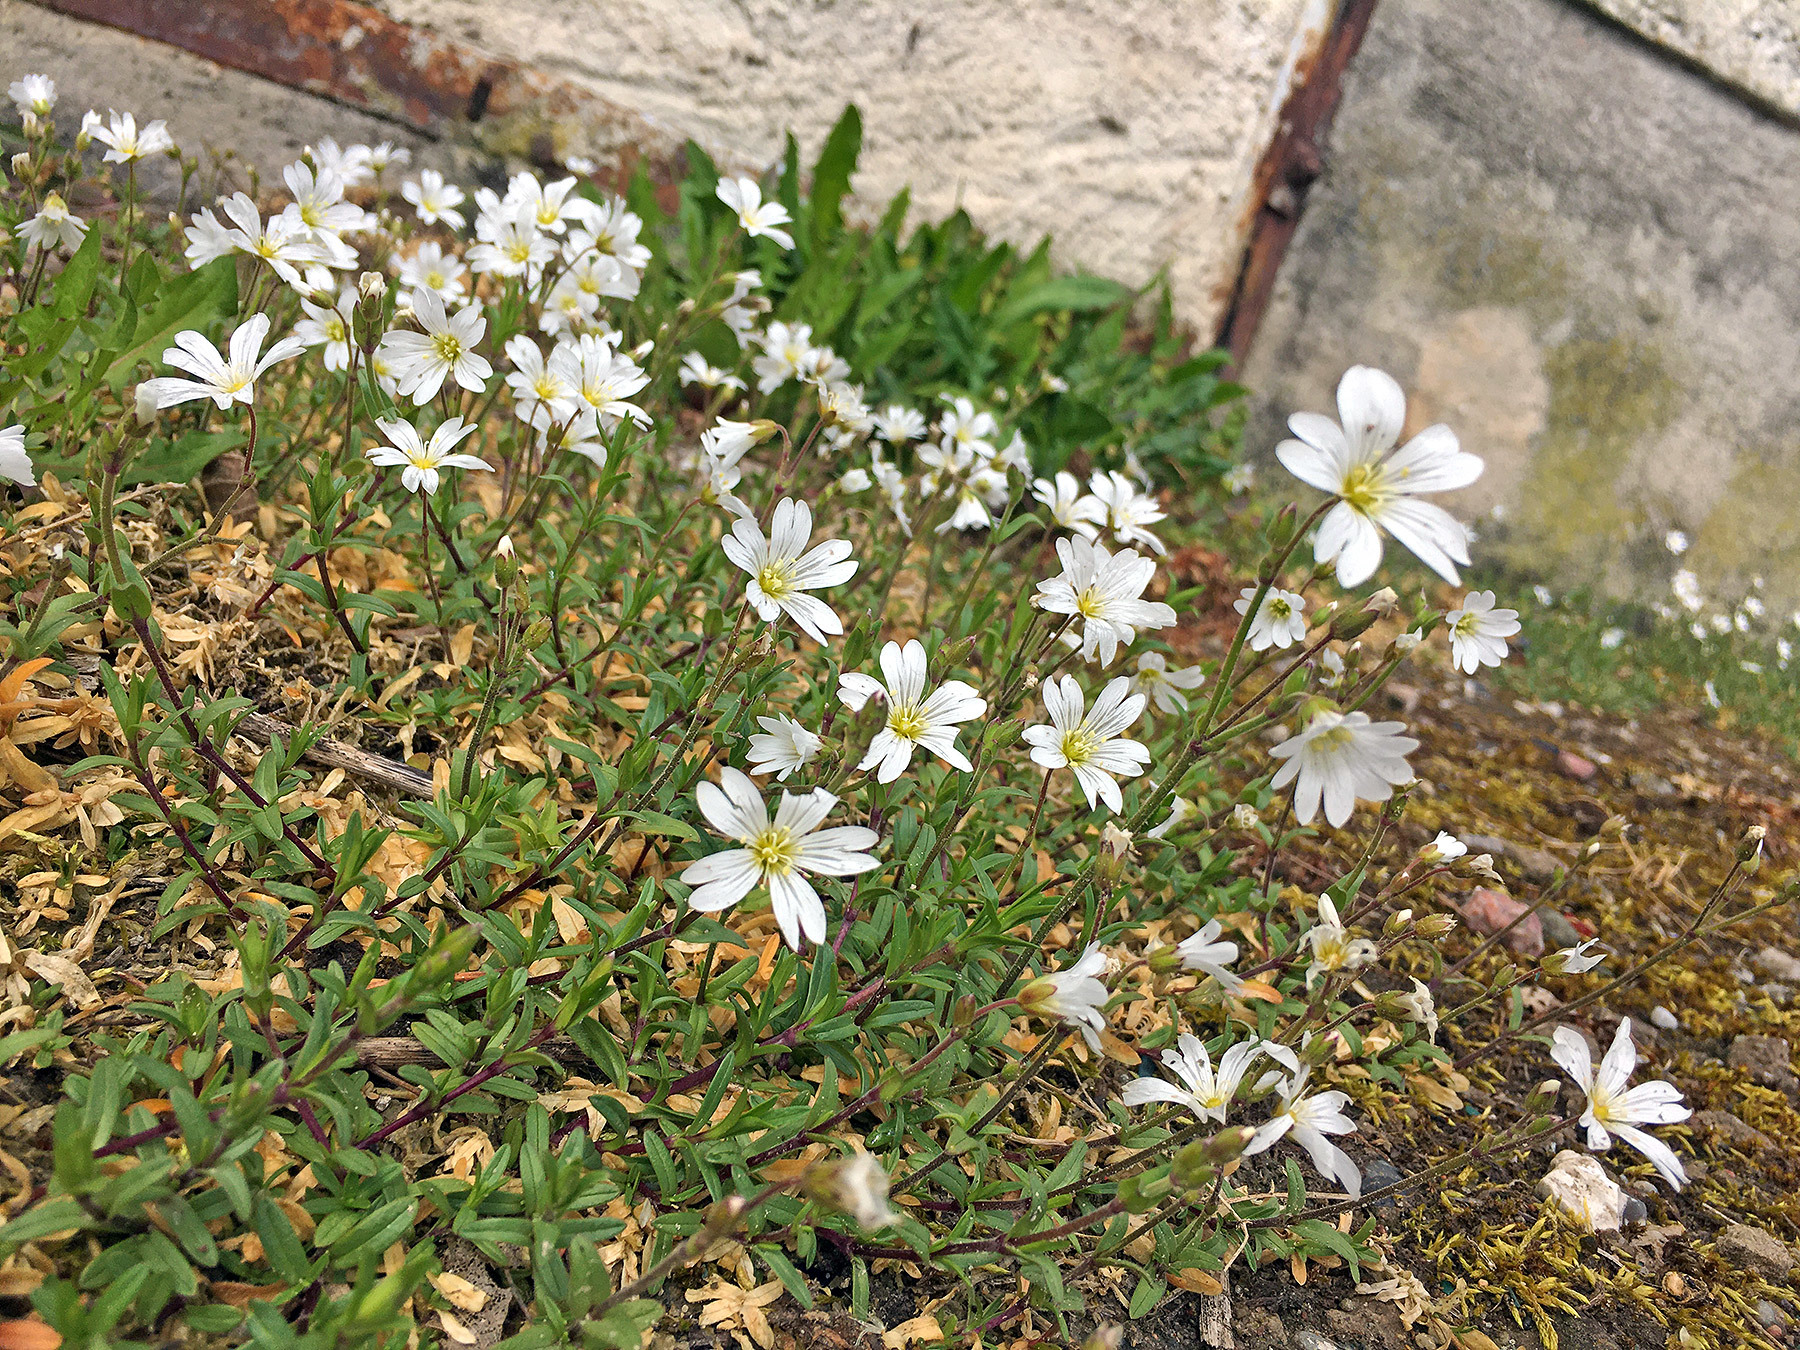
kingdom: Plantae
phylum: Tracheophyta
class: Magnoliopsida
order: Caryophyllales
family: Caryophyllaceae
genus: Cerastium
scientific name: Cerastium arvense
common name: Field mouse-ear
